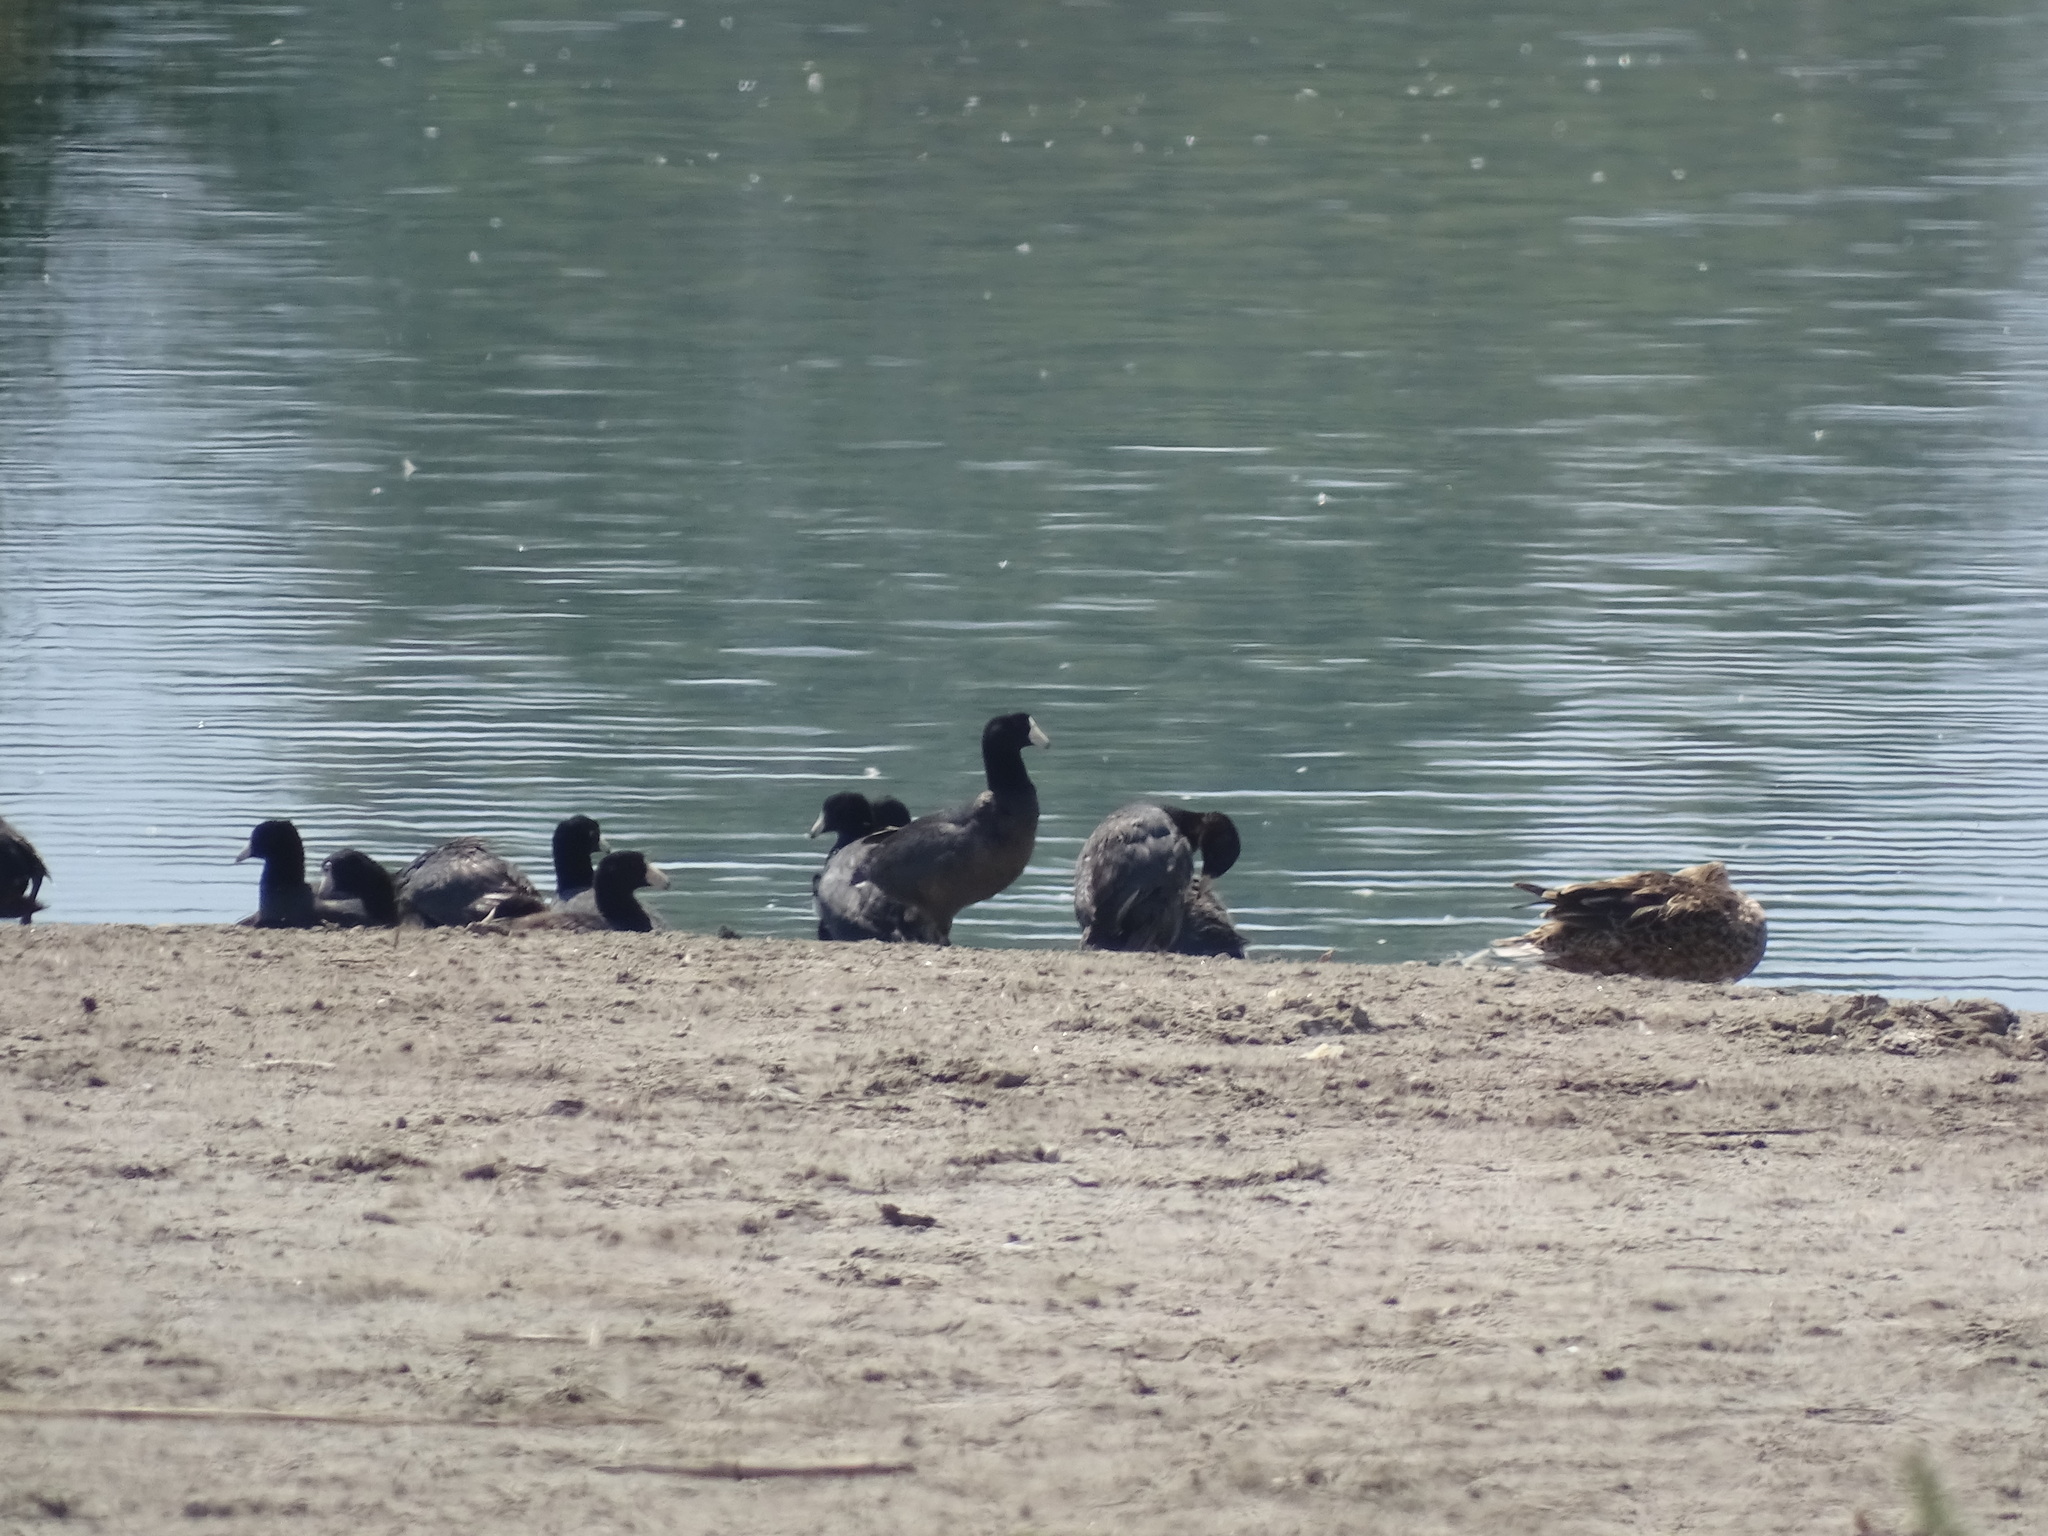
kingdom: Animalia
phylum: Chordata
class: Aves
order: Gruiformes
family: Rallidae
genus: Fulica
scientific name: Fulica americana
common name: American coot
